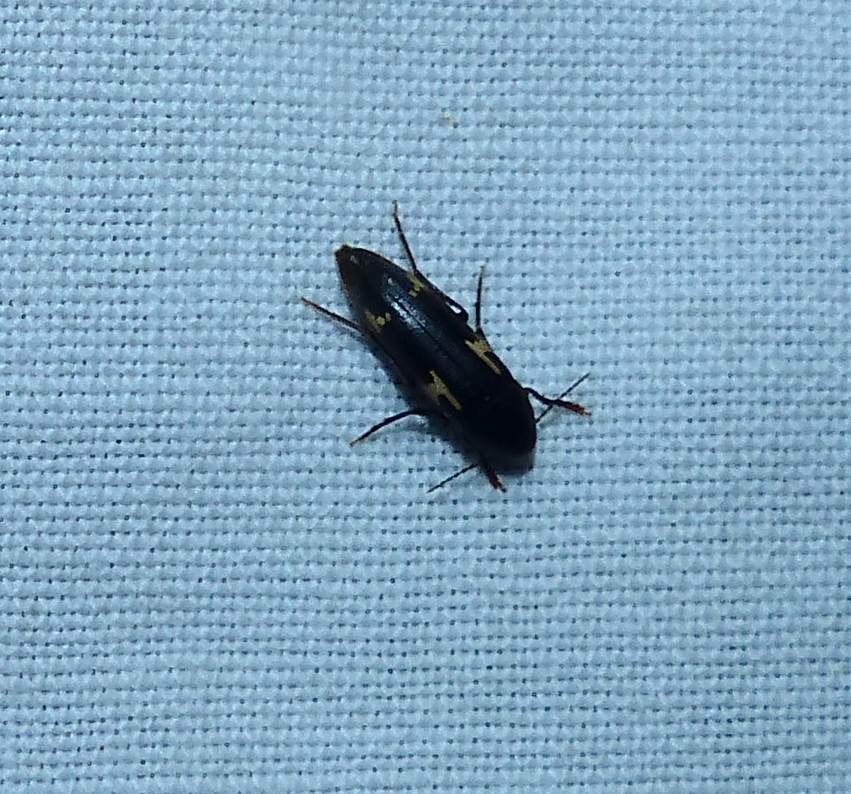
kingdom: Animalia
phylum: Arthropoda
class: Insecta
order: Coleoptera
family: Melandryidae
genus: Dircaea
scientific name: Dircaea liturata
